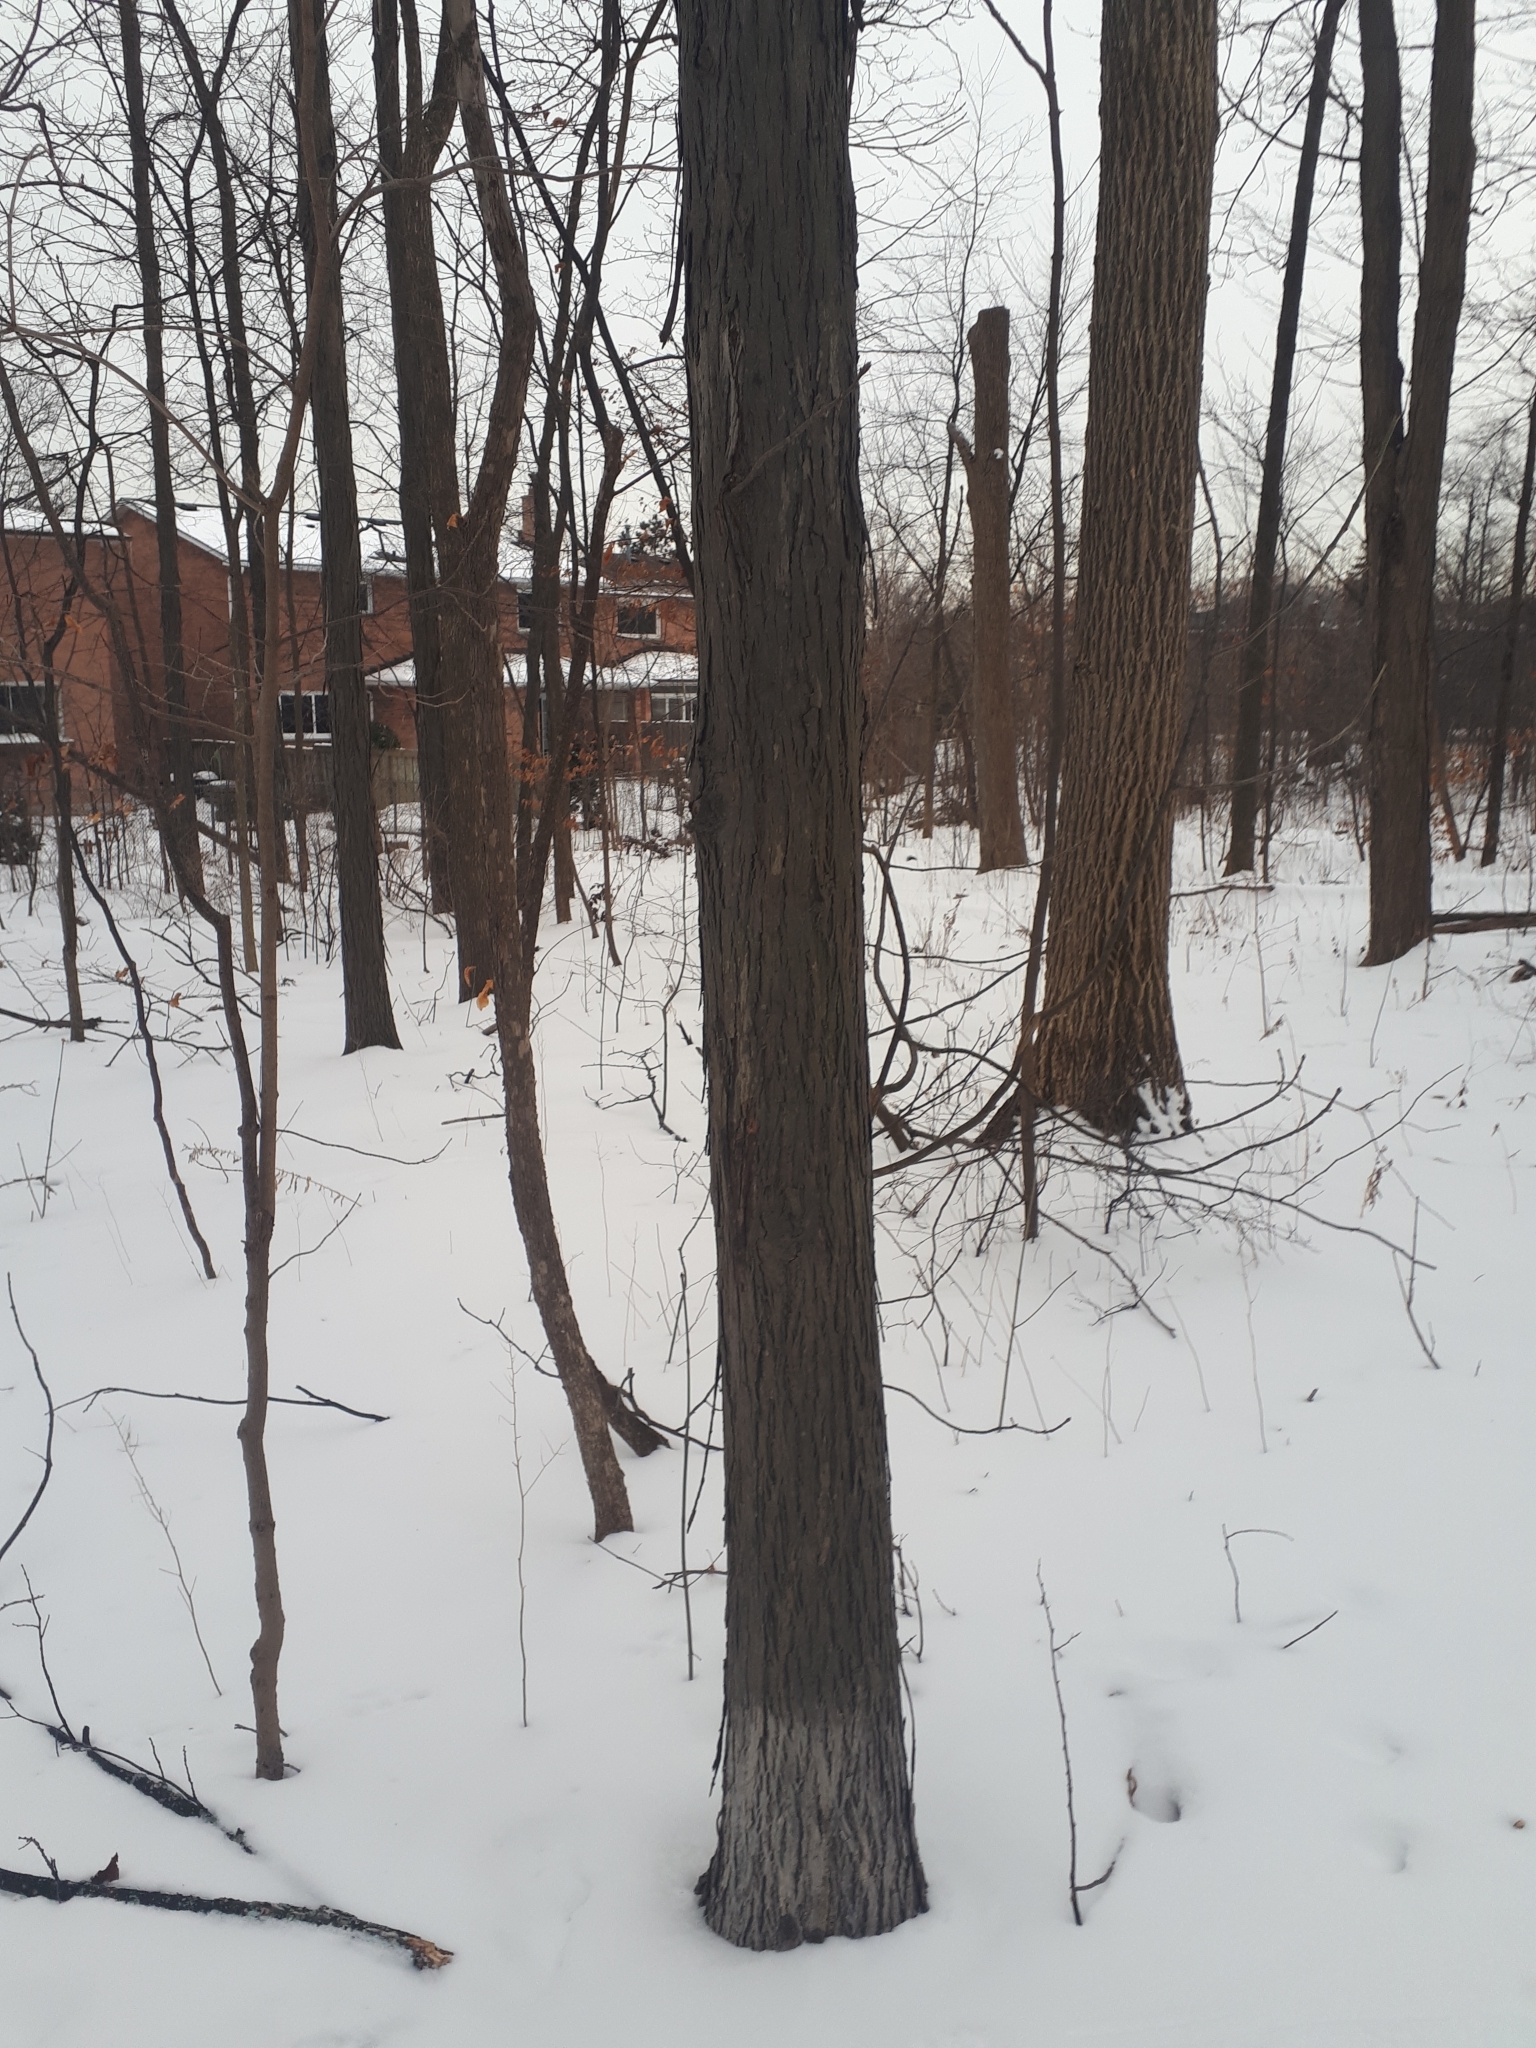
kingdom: Plantae
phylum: Tracheophyta
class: Magnoliopsida
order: Fagales
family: Juglandaceae
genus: Carya
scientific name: Carya ovata
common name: Shagbark hickory
